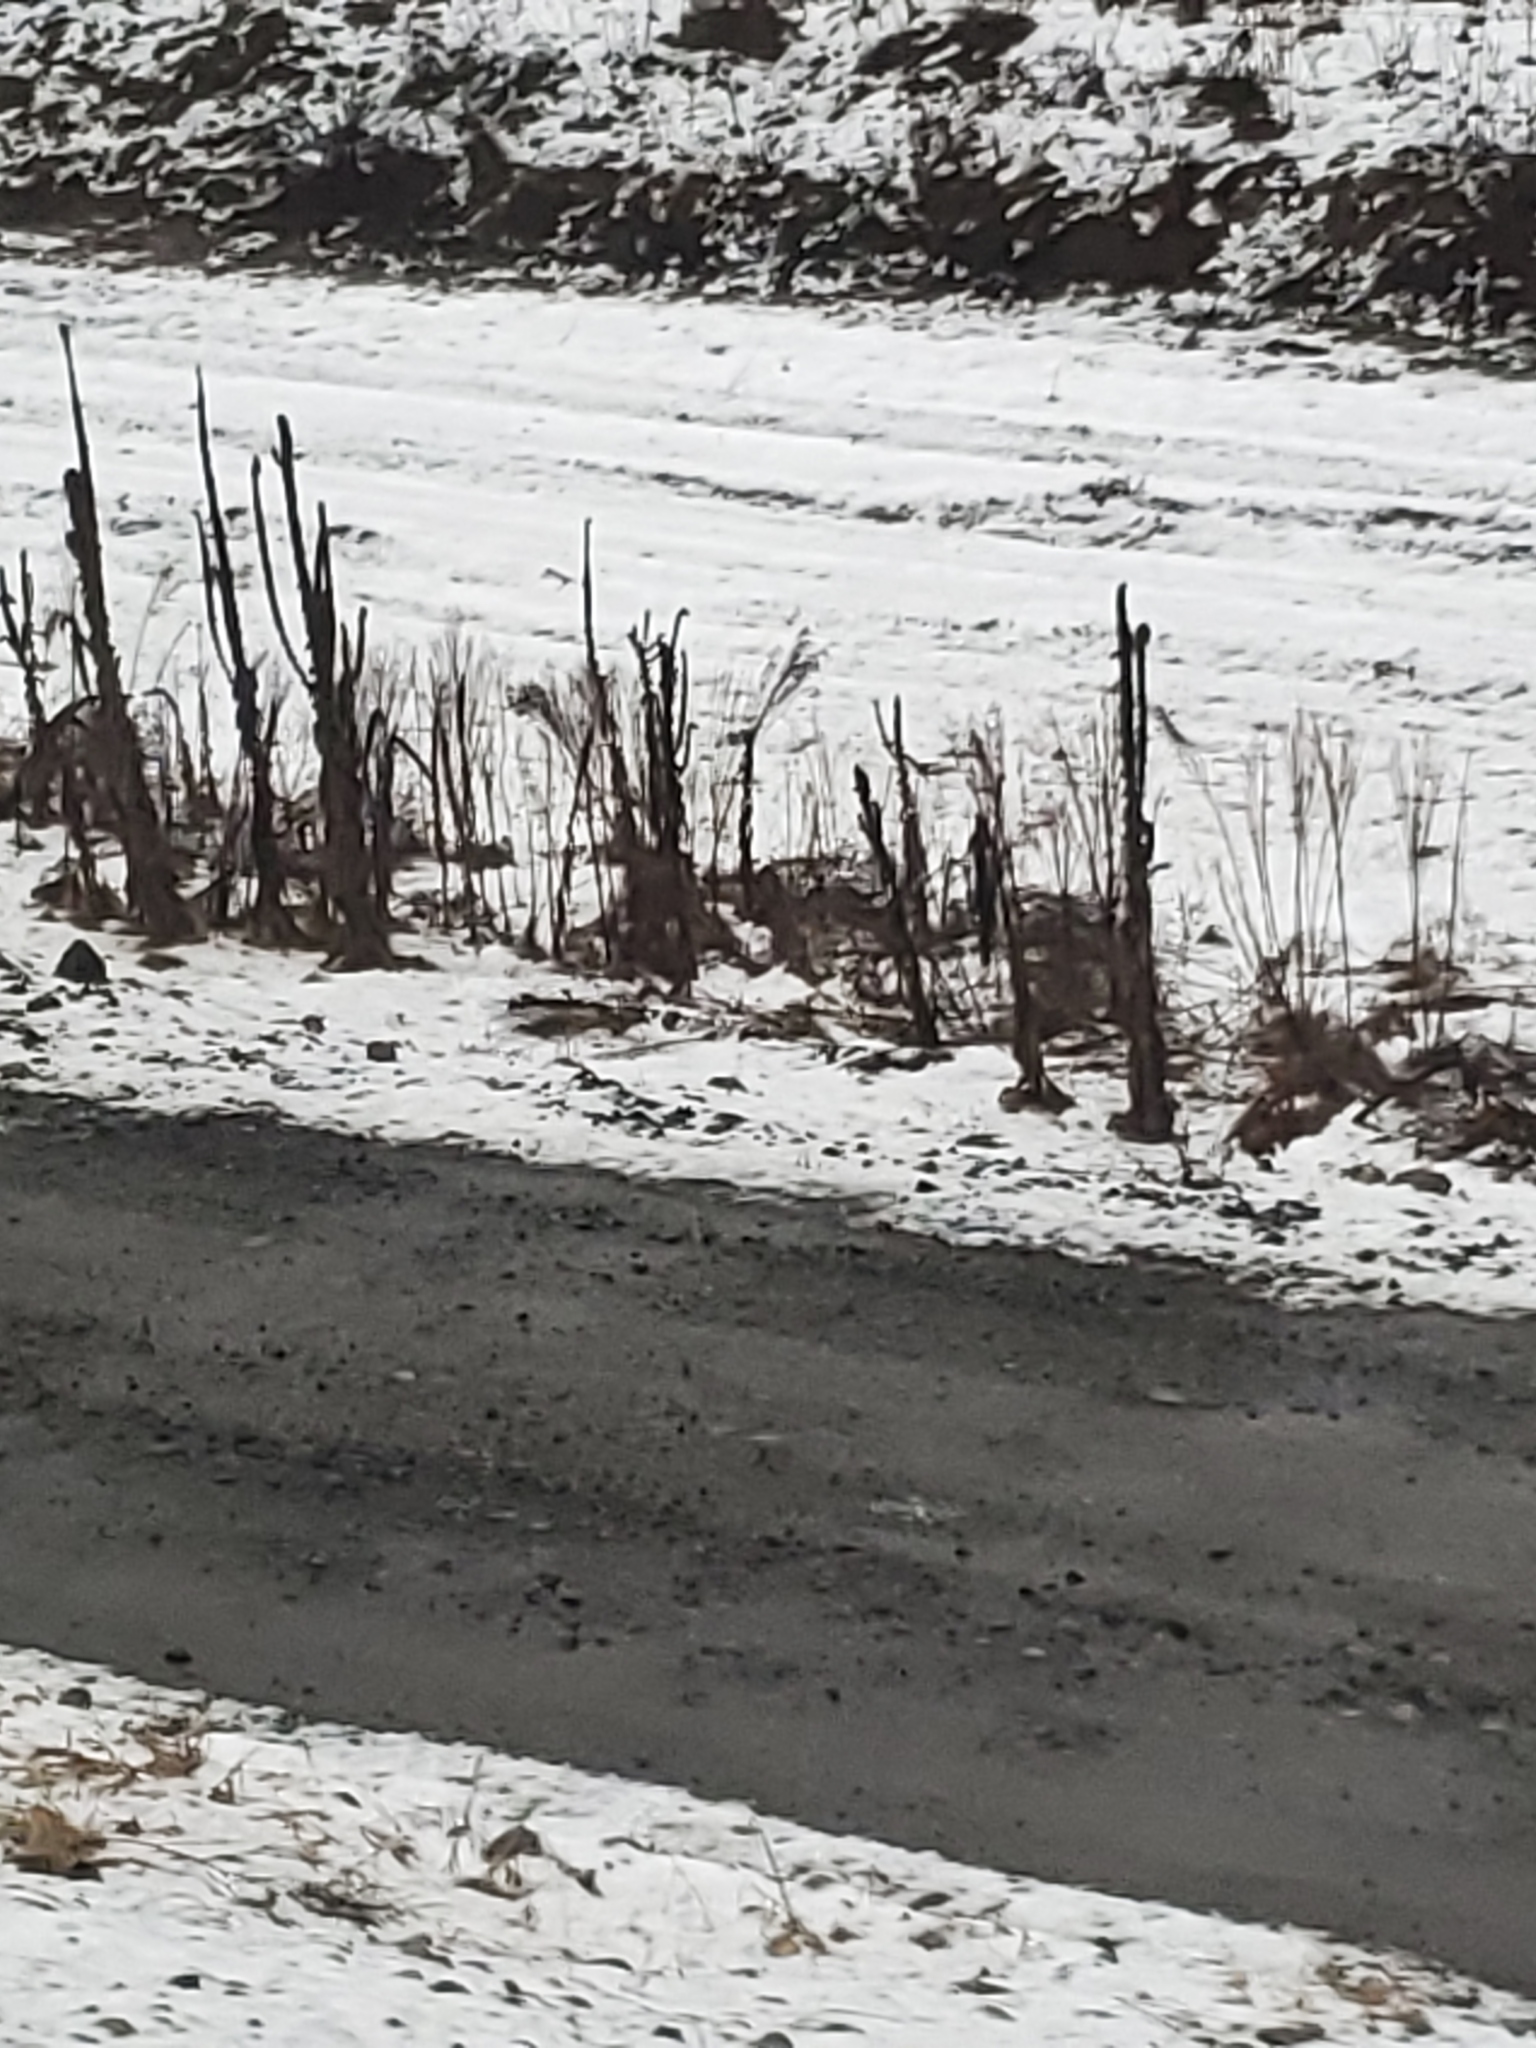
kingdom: Plantae
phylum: Tracheophyta
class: Magnoliopsida
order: Lamiales
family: Scrophulariaceae
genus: Verbascum
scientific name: Verbascum thapsus
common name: Common mullein
